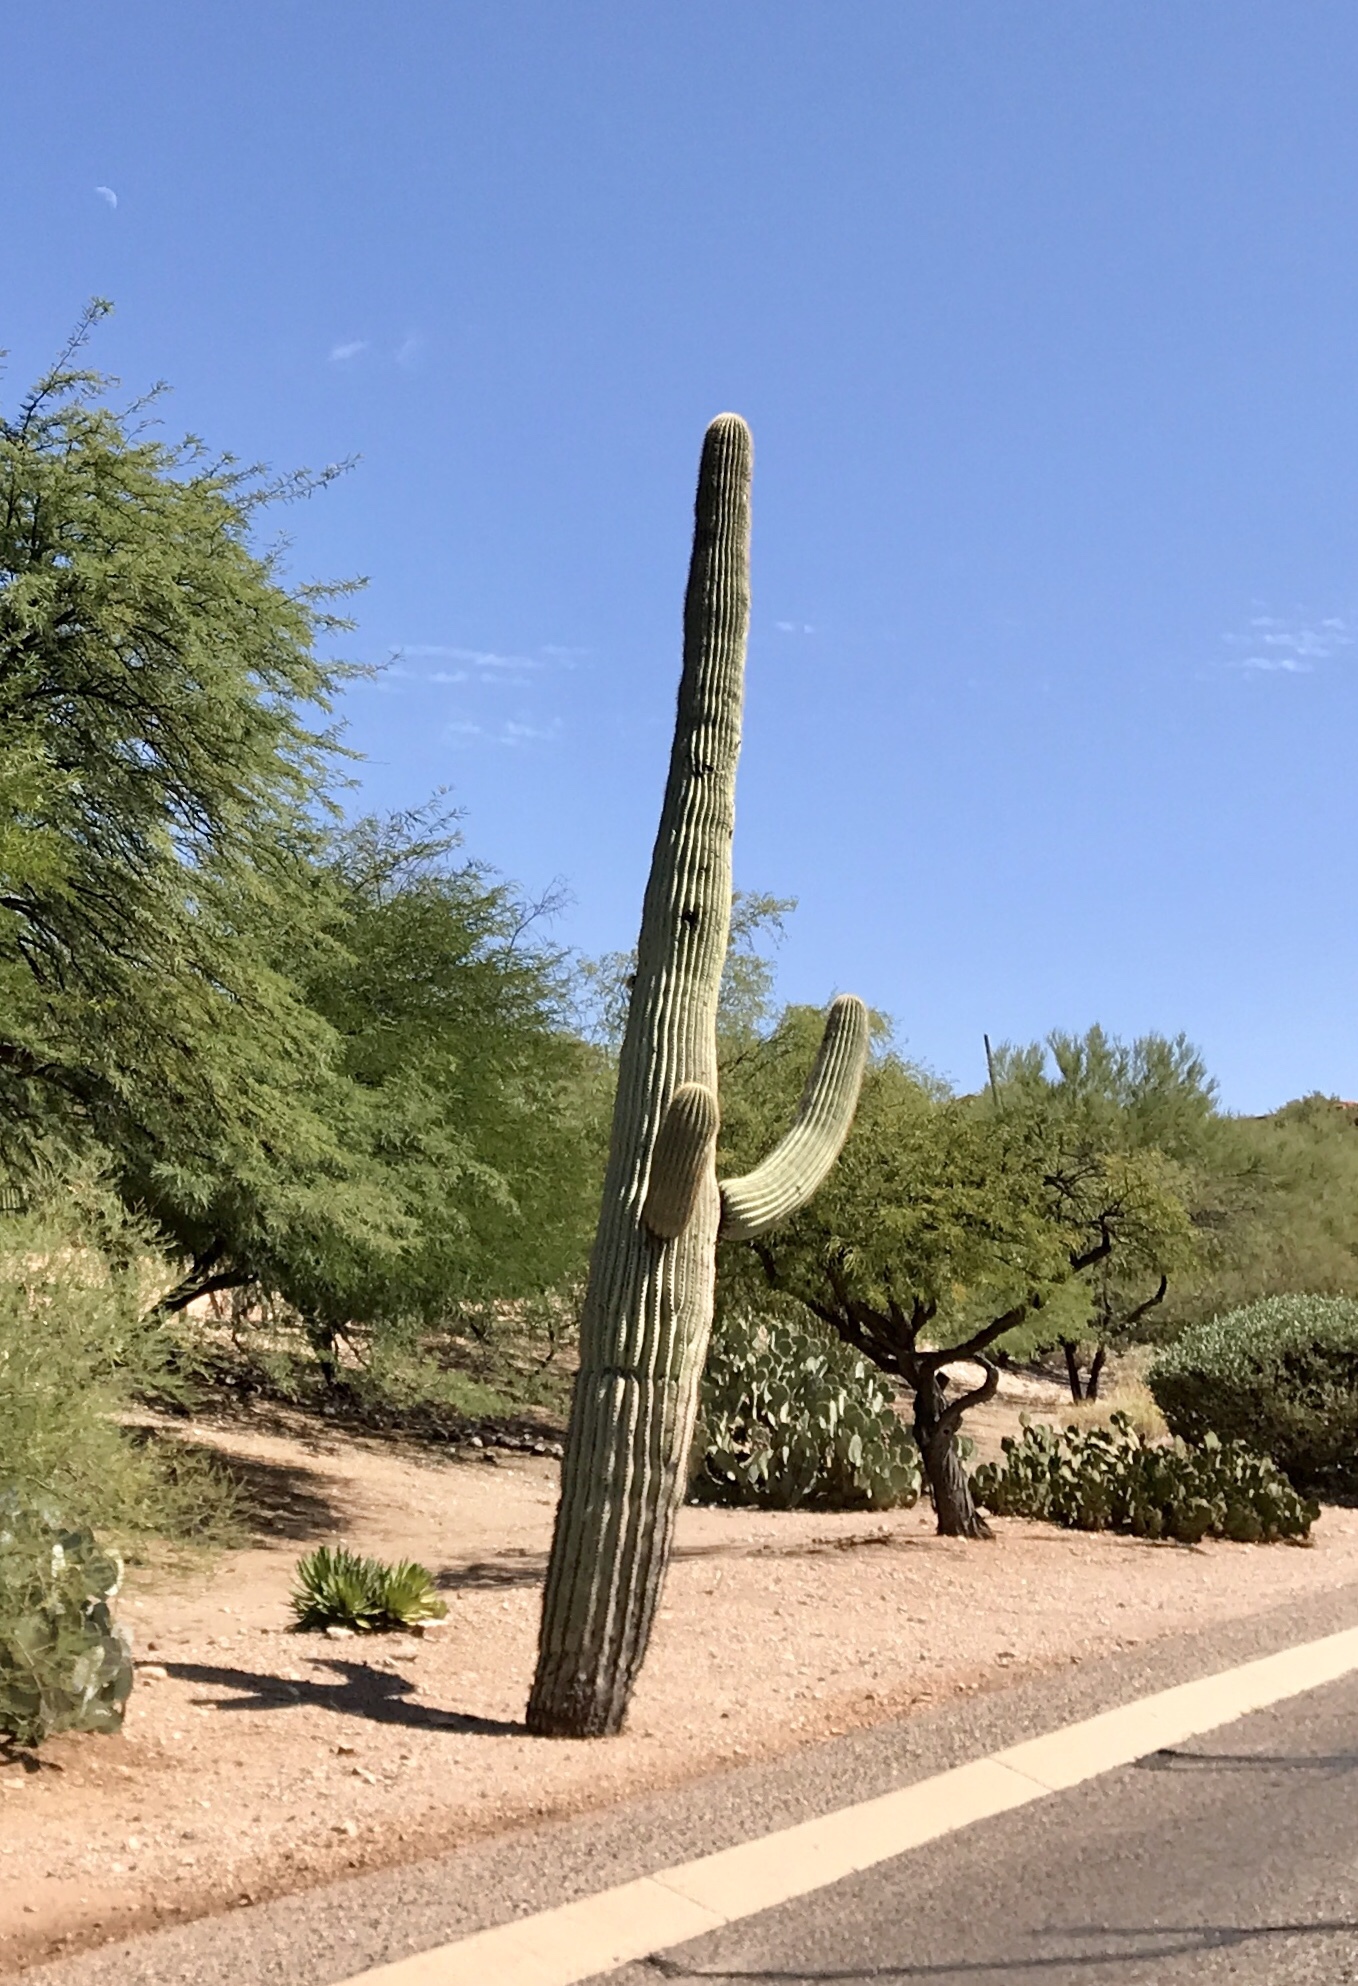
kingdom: Plantae
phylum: Tracheophyta
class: Magnoliopsida
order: Caryophyllales
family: Cactaceae
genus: Carnegiea
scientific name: Carnegiea gigantea
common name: Saguaro
